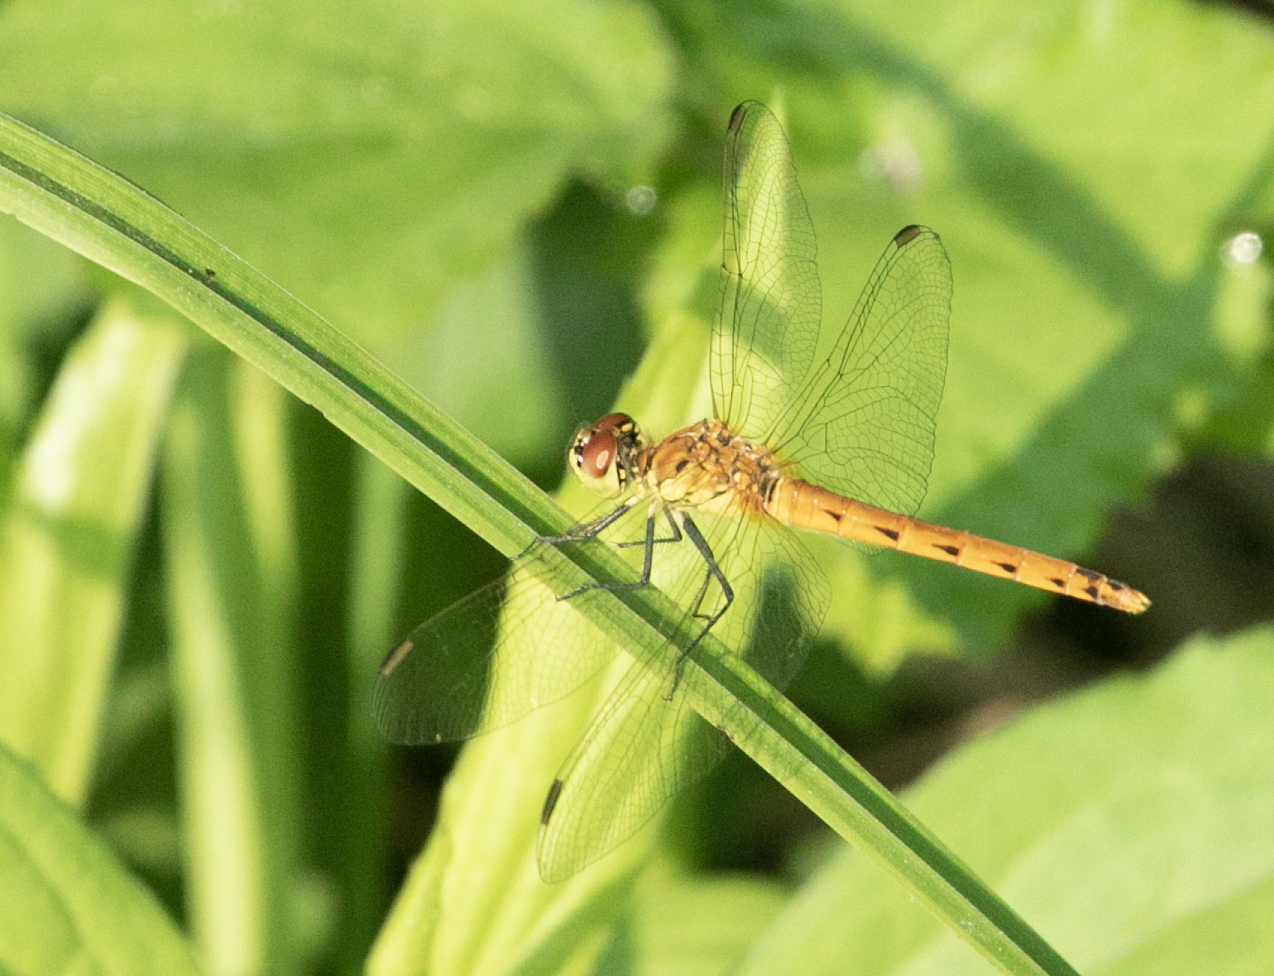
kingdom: Animalia
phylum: Arthropoda
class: Insecta
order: Odonata
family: Libellulidae
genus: Sympetrum
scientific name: Sympetrum depressiusculum
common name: Spotted darter
